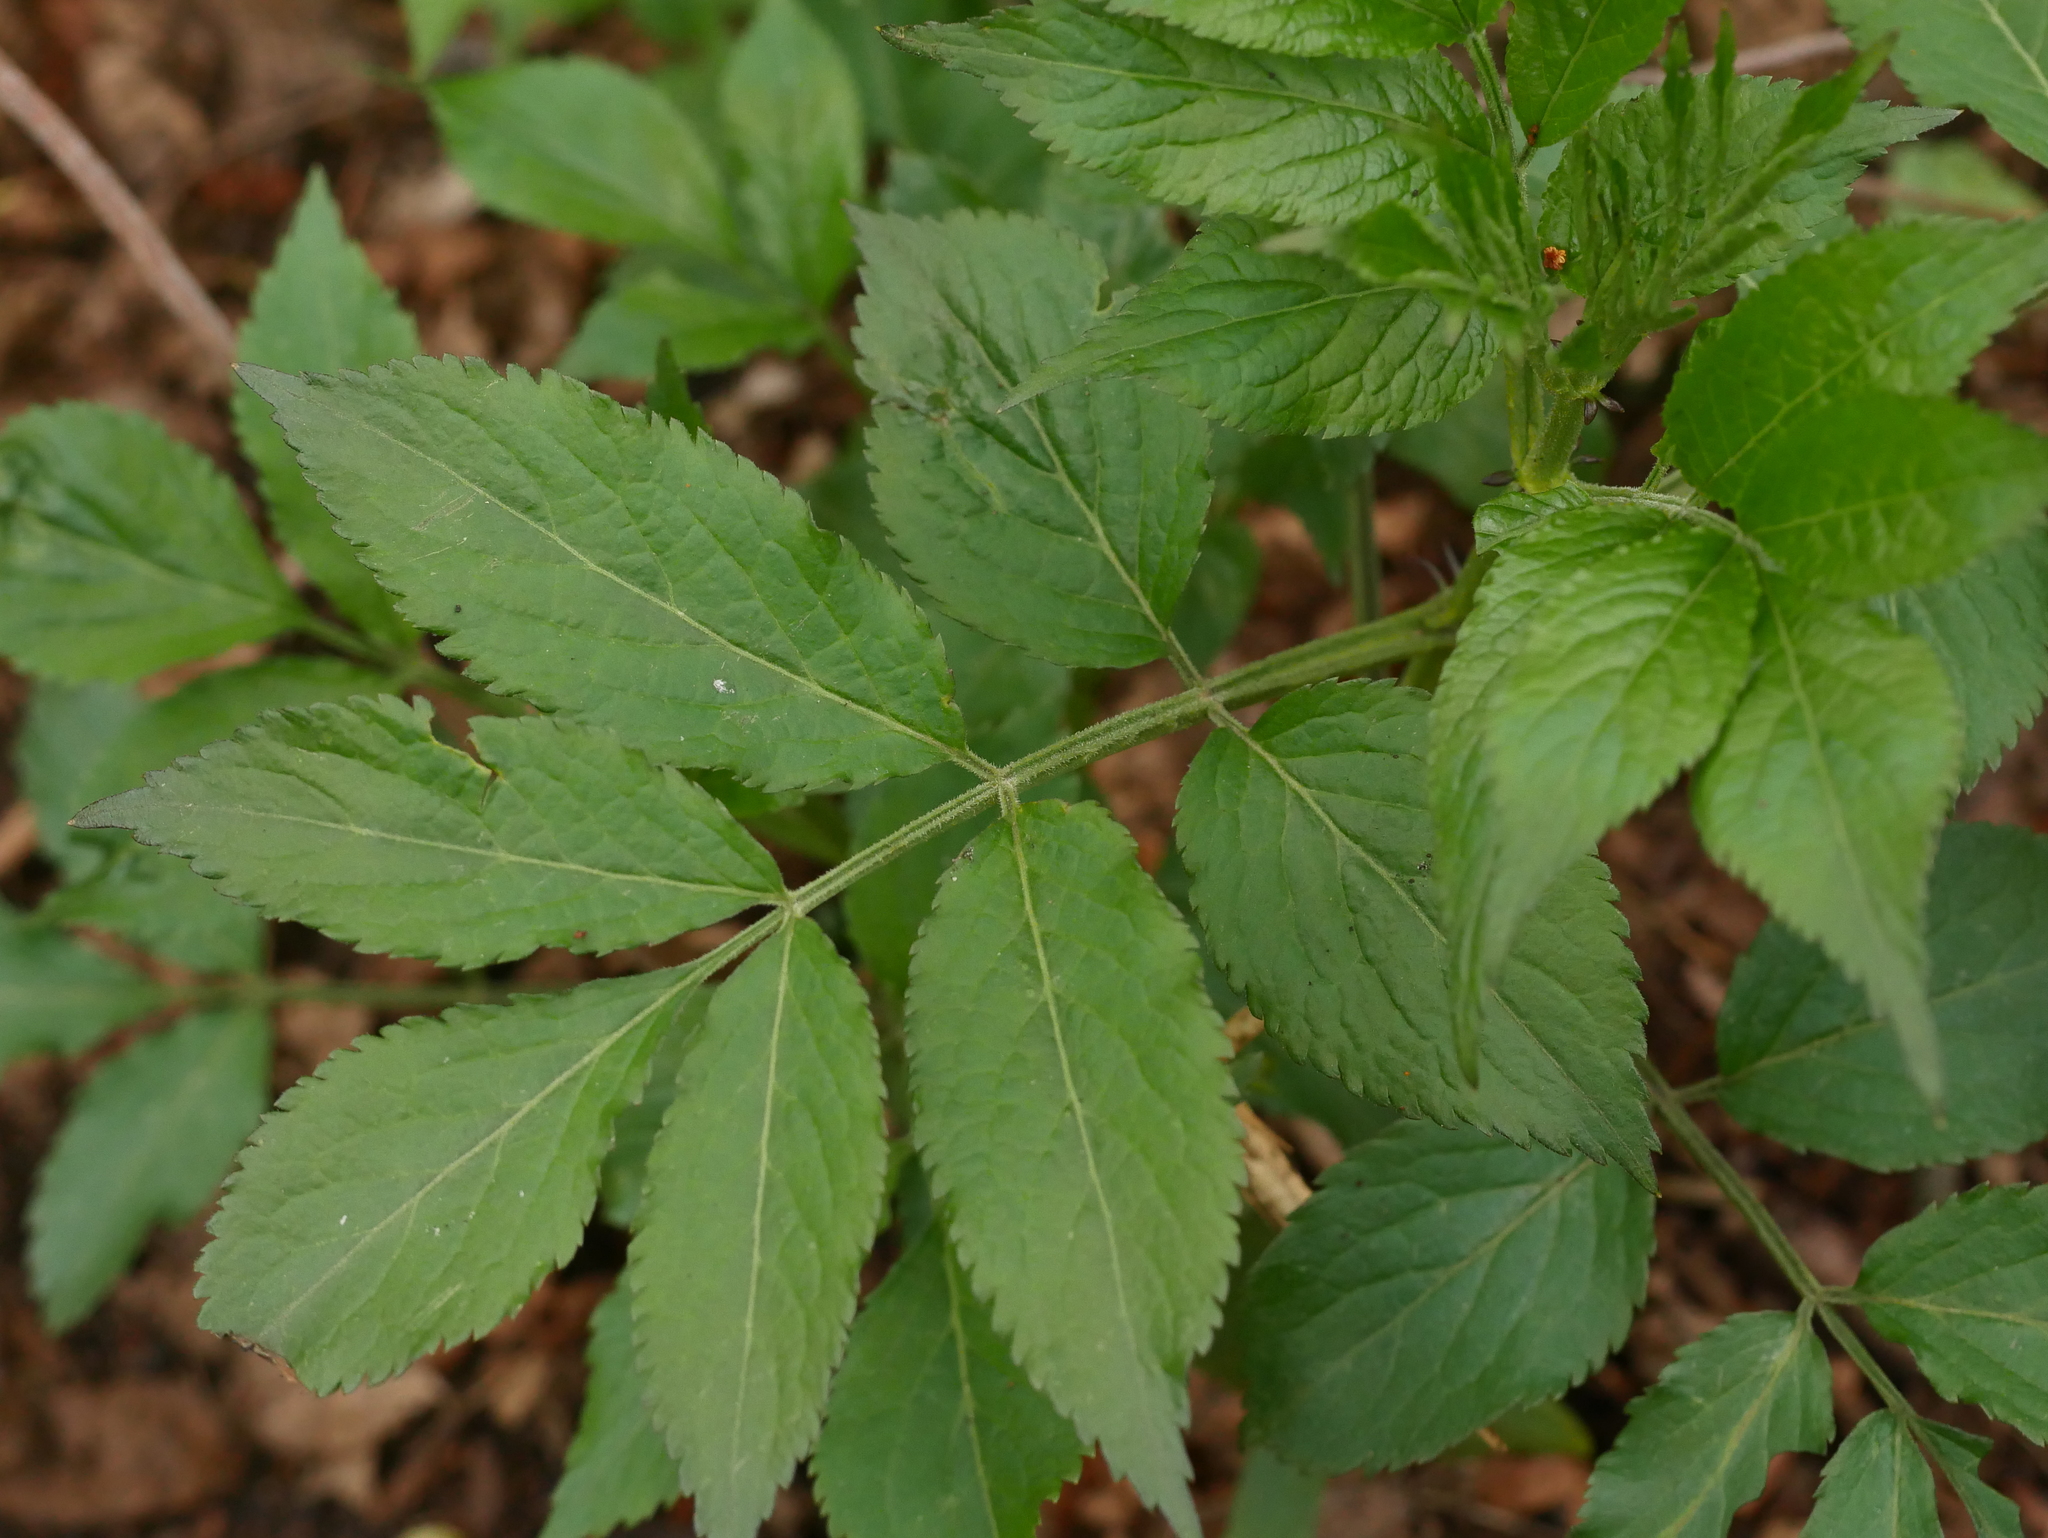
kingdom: Plantae
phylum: Tracheophyta
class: Magnoliopsida
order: Dipsacales
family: Viburnaceae
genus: Sambucus
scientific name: Sambucus nigra
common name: Elder
